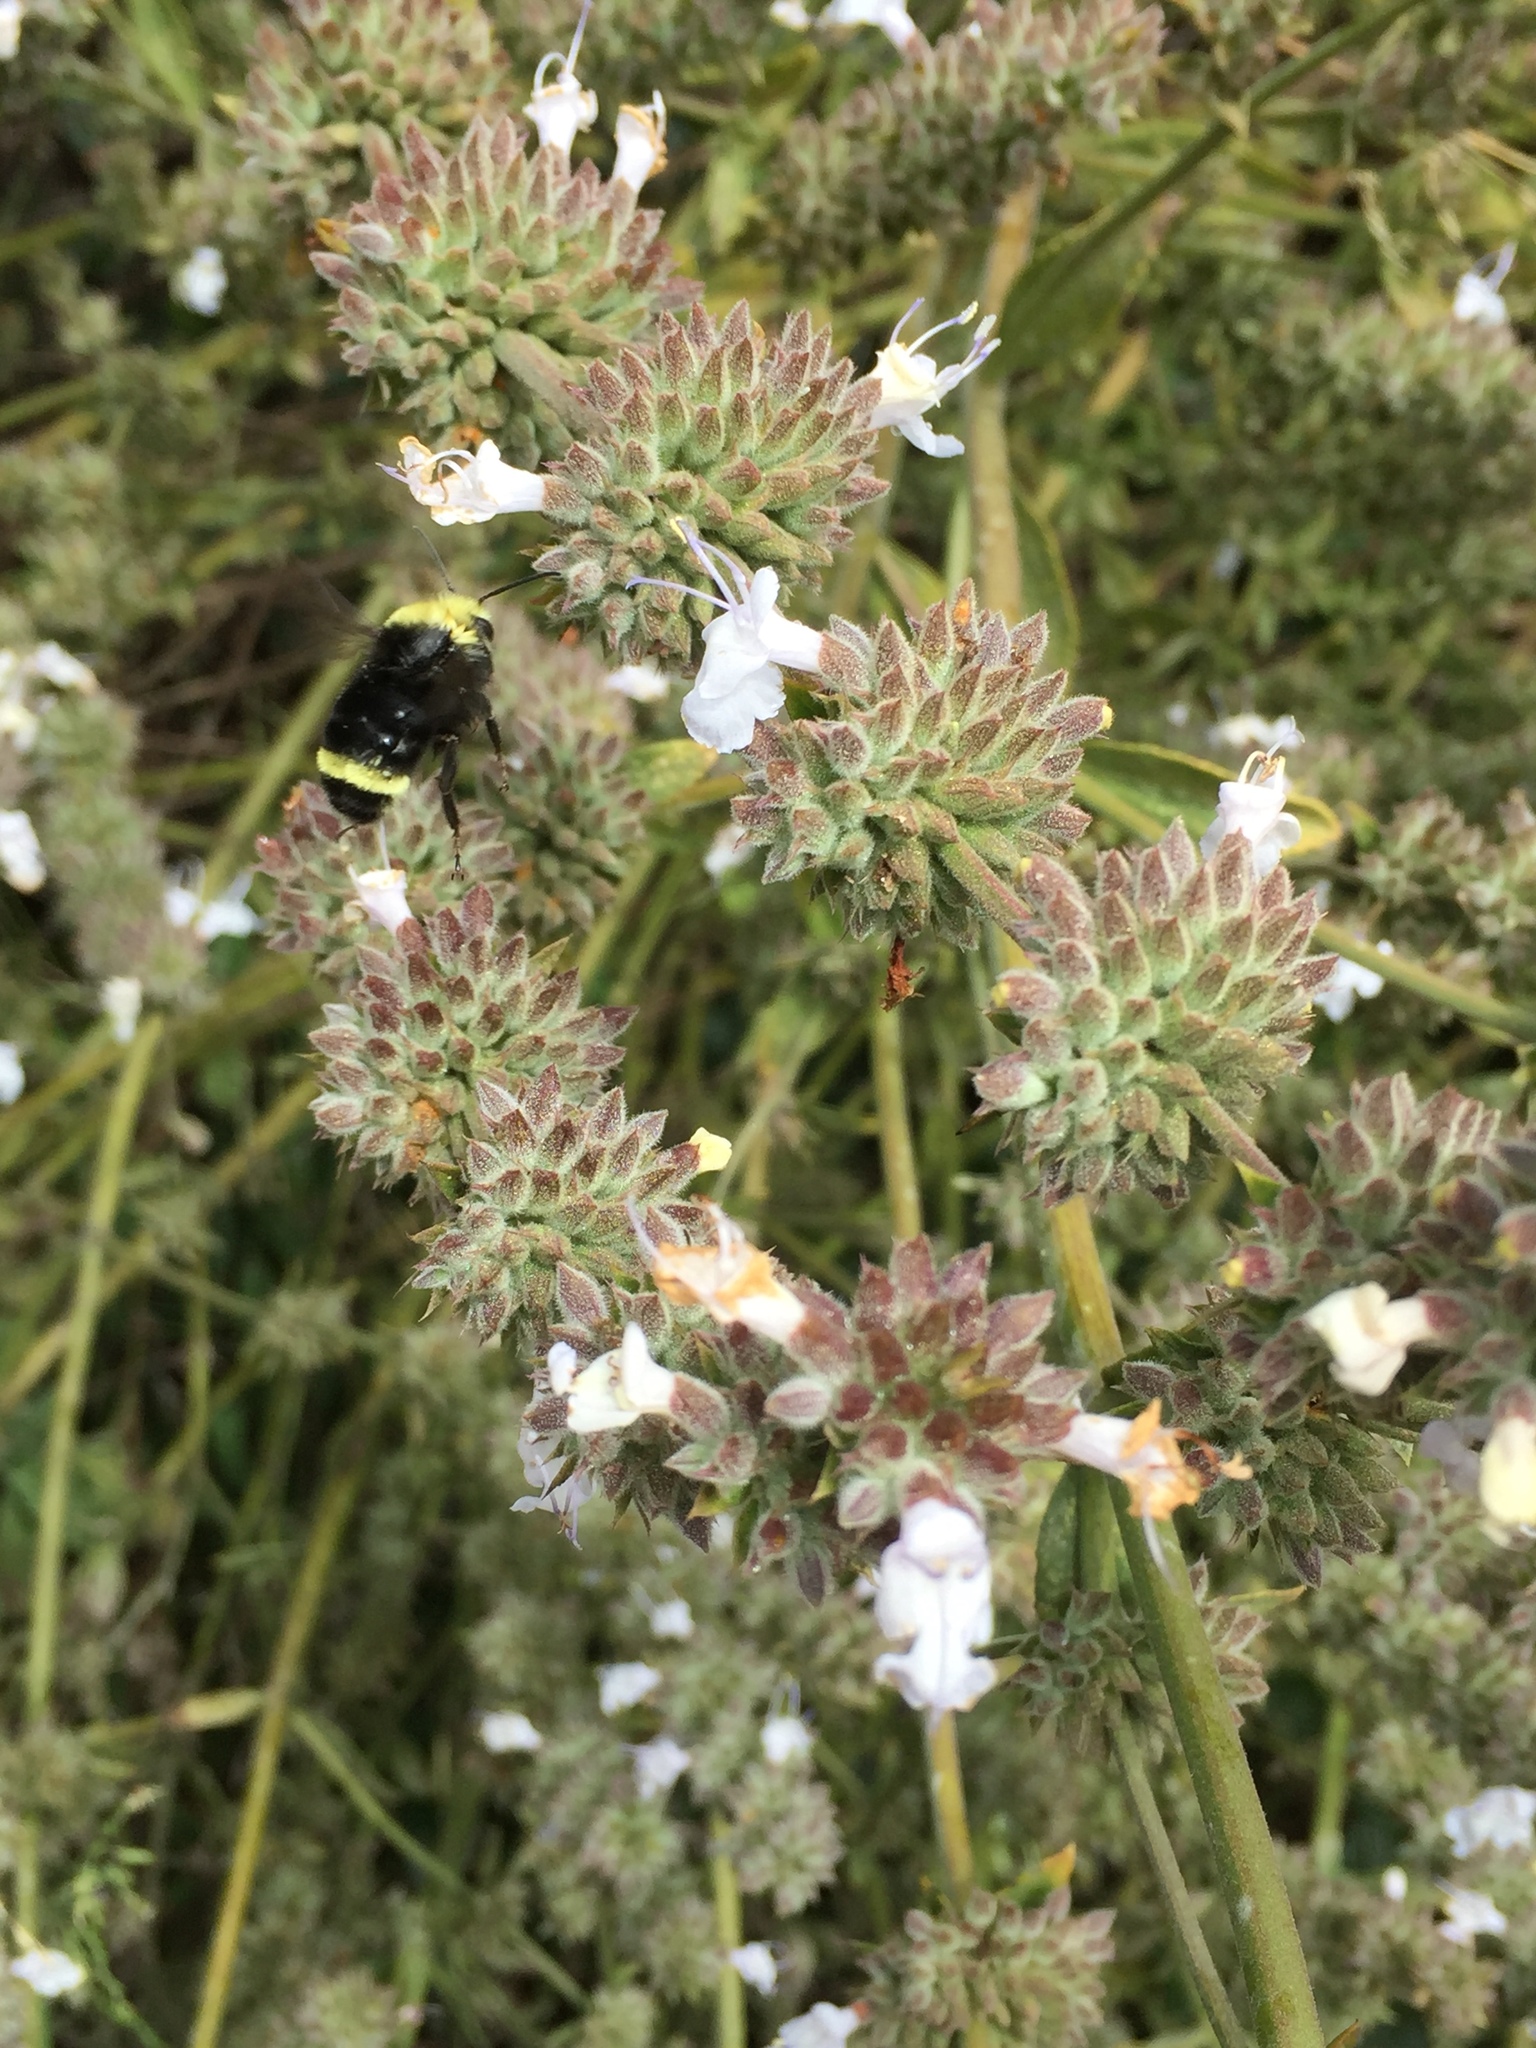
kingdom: Animalia
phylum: Arthropoda
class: Insecta
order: Hymenoptera
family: Apidae
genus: Bombus
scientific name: Bombus vosnesenskii
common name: Vosnesensky bumble bee
